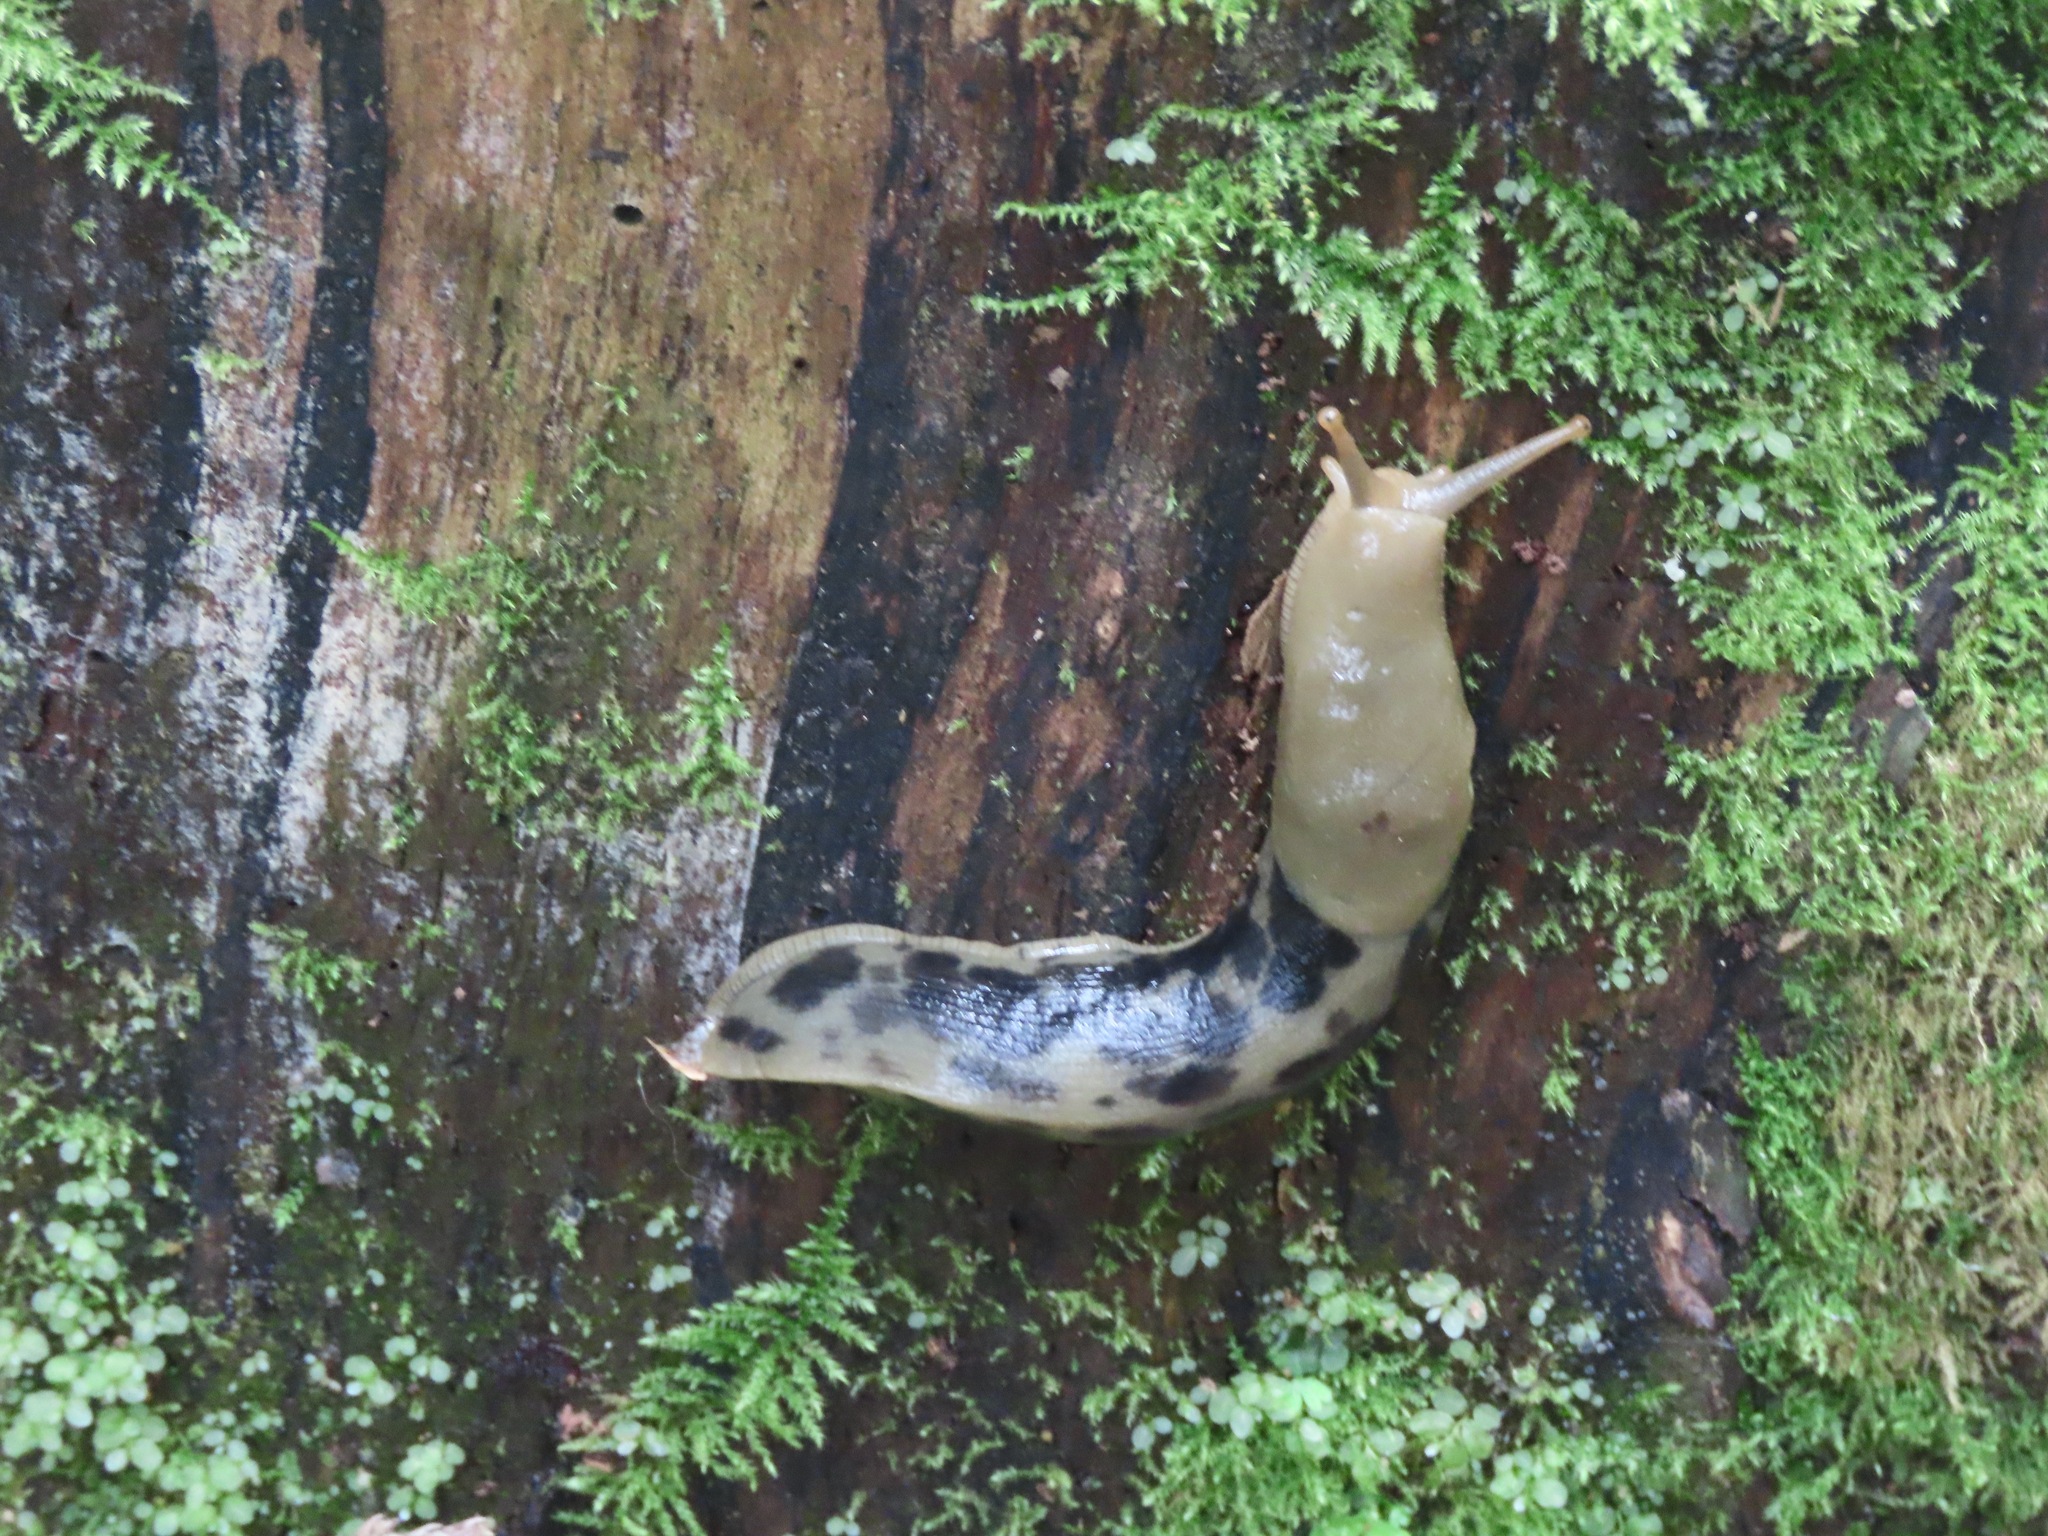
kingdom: Animalia
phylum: Mollusca
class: Gastropoda
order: Stylommatophora
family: Ariolimacidae
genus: Ariolimax
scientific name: Ariolimax columbianus
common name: Pacific banana slug
